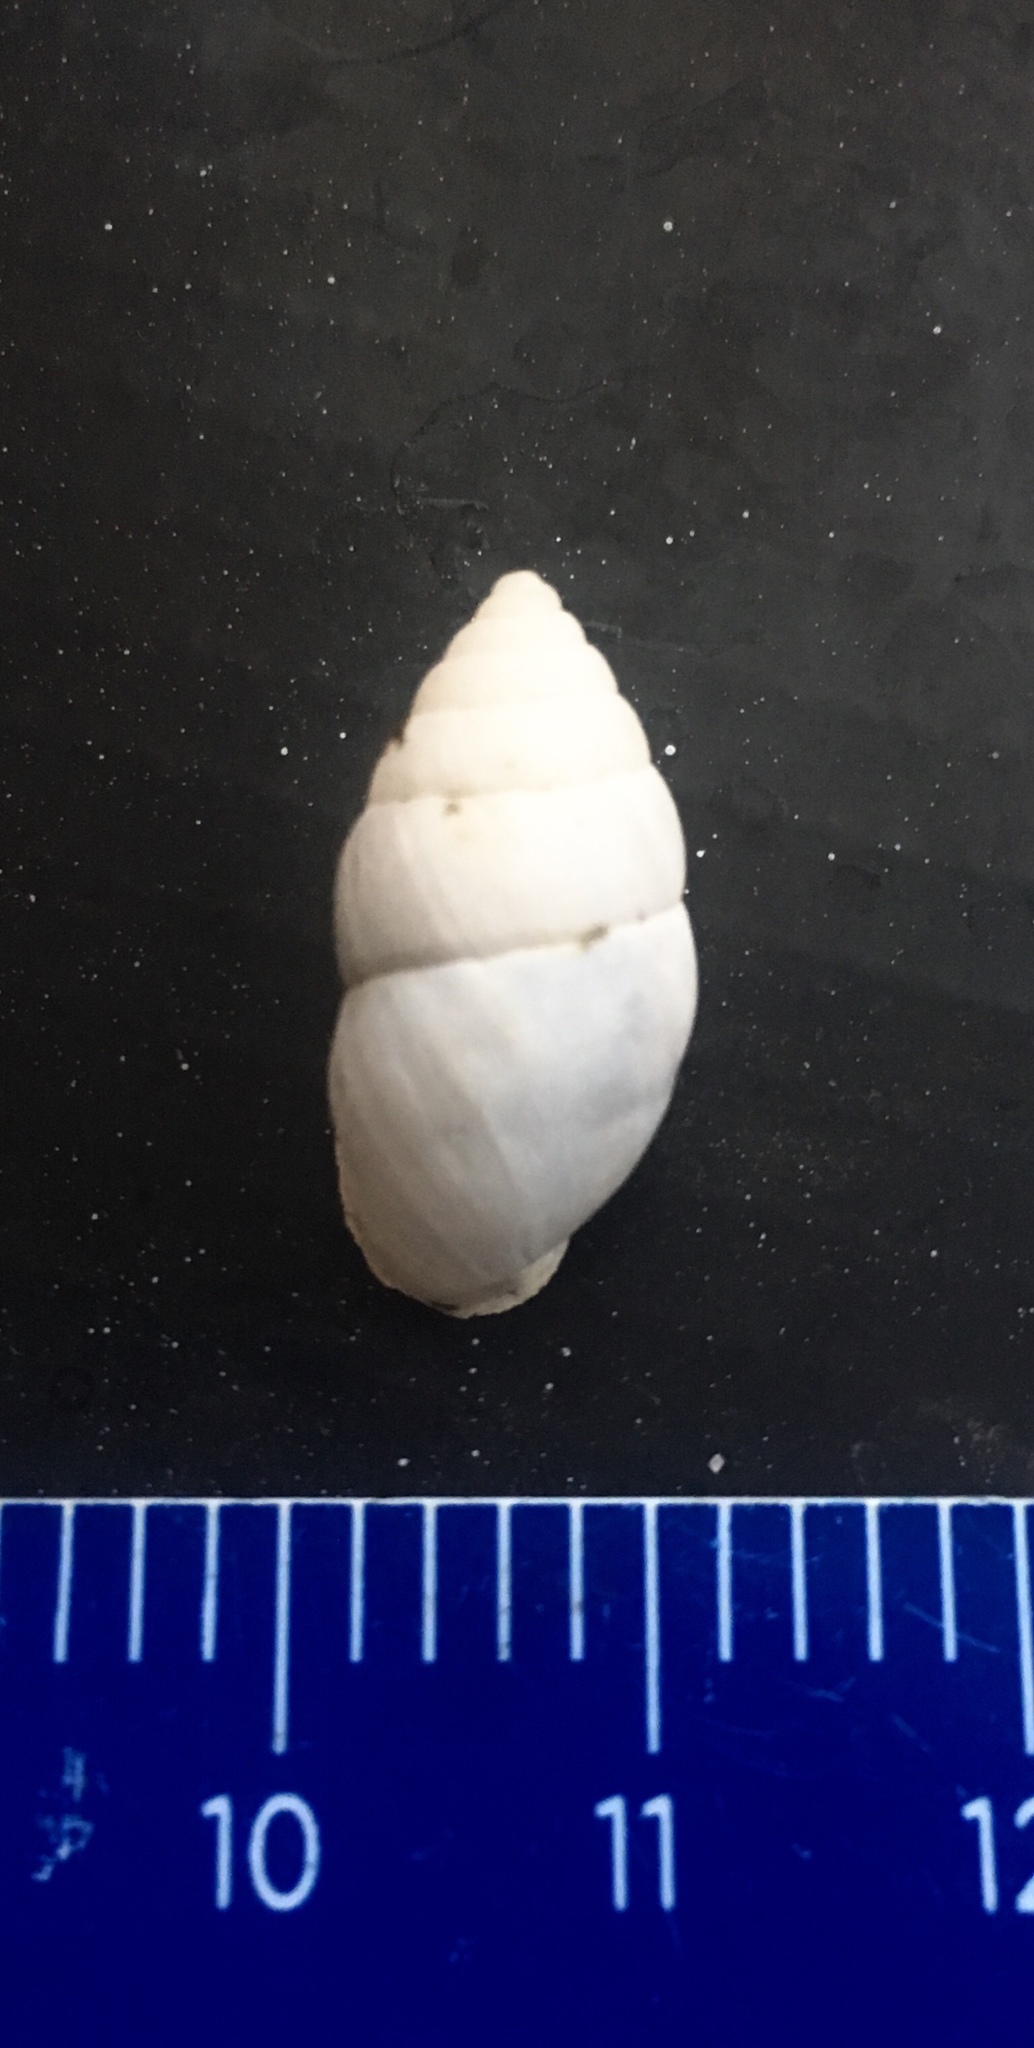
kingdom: Animalia
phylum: Mollusca
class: Gastropoda
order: Stylommatophora
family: Odontostomidae
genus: Plagiodontes
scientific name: Plagiodontes patagonicus
